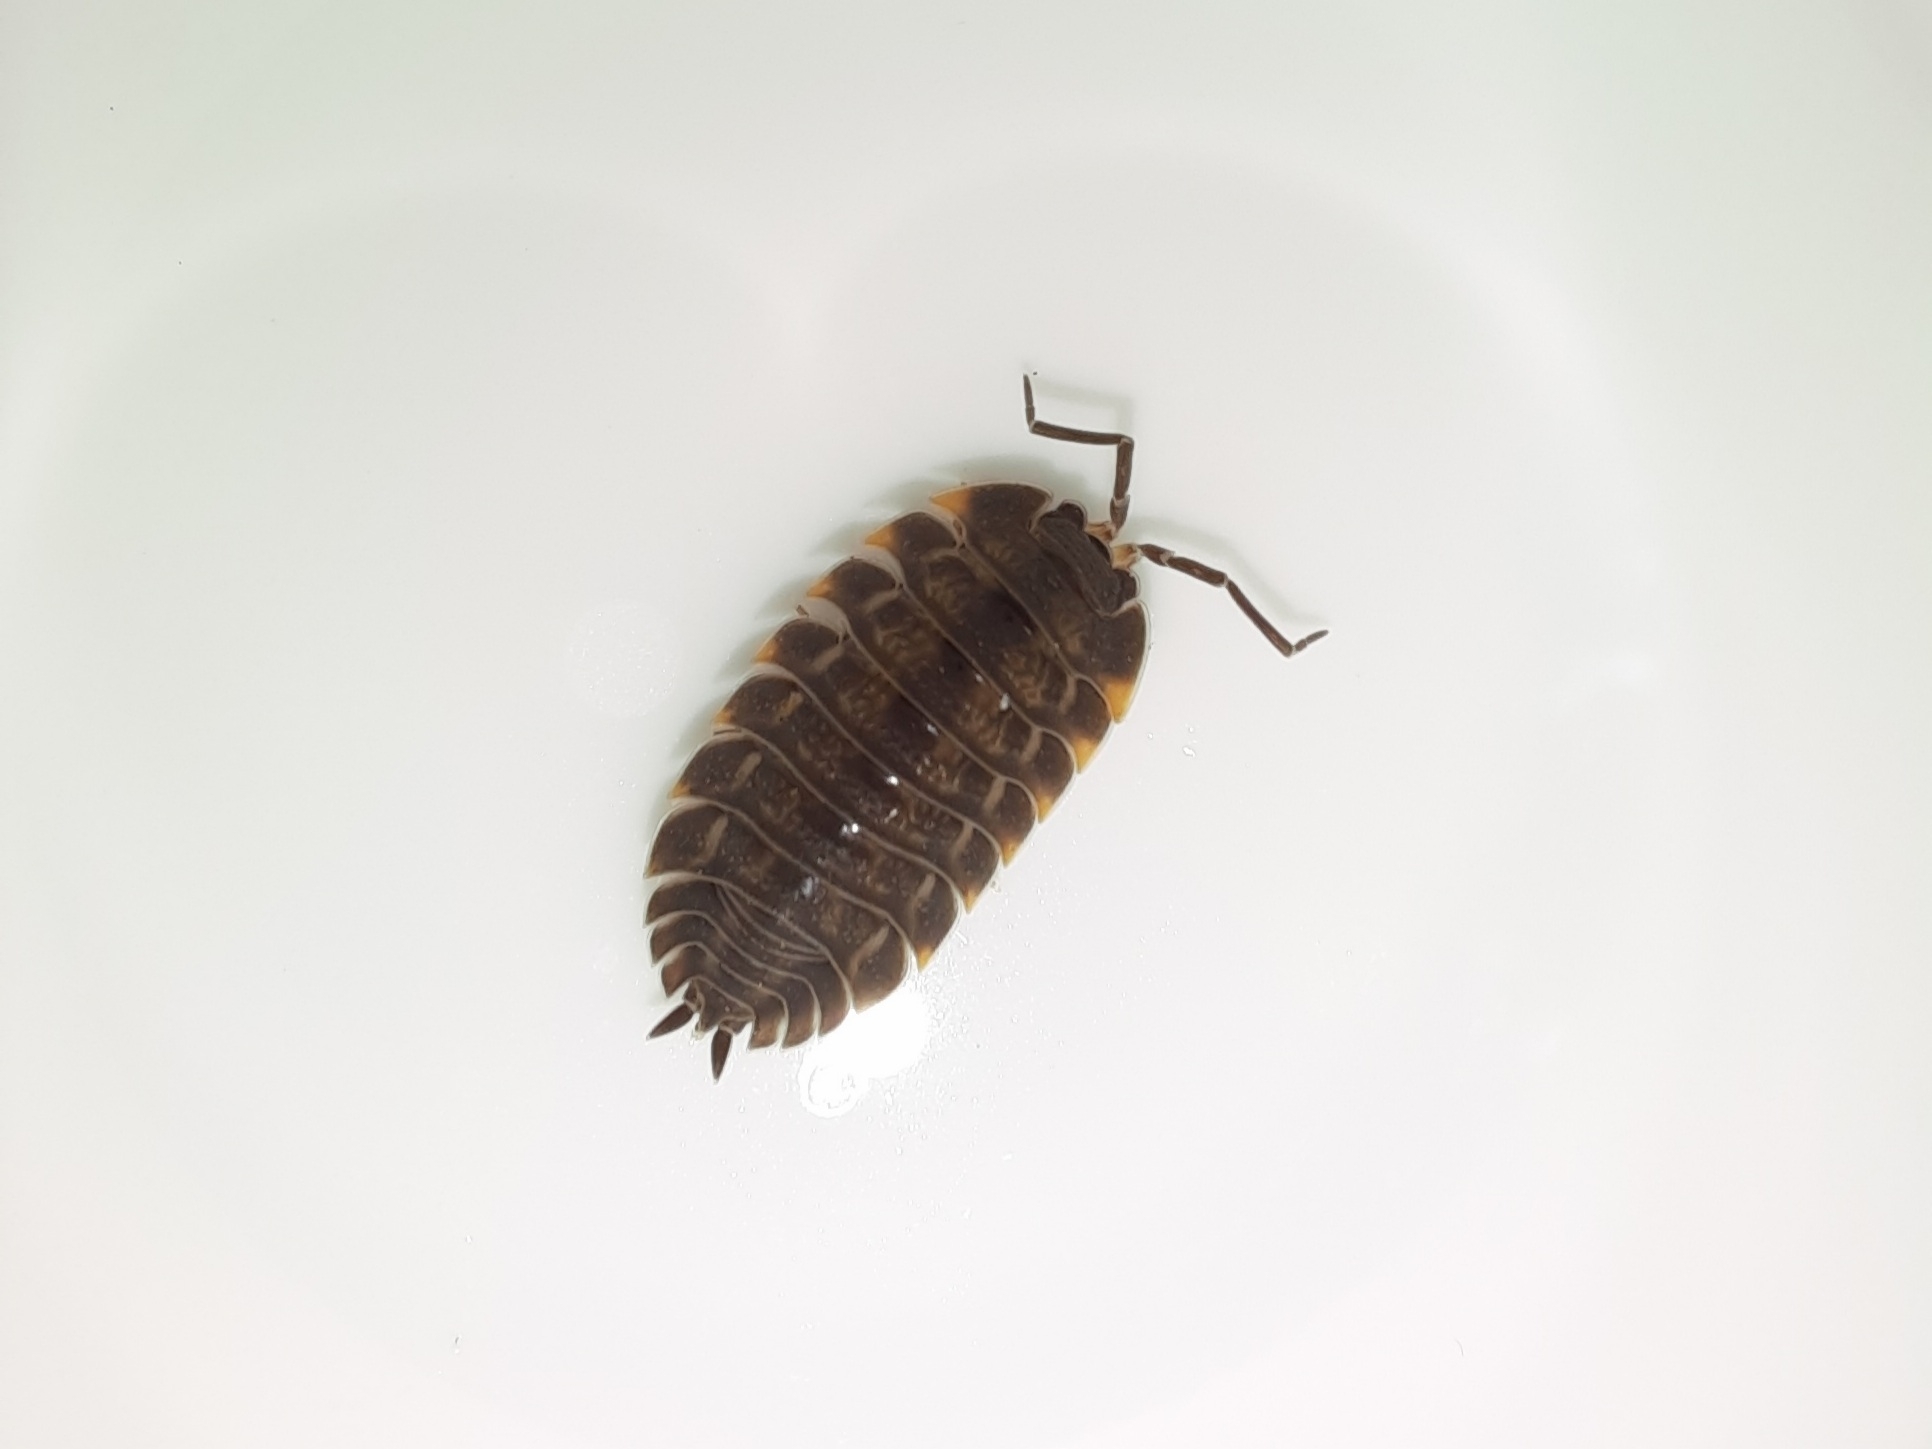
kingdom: Animalia
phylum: Arthropoda
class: Malacostraca
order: Isopoda
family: Trachelipodidae
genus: Trachelipus
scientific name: Trachelipus ratzeburgii
